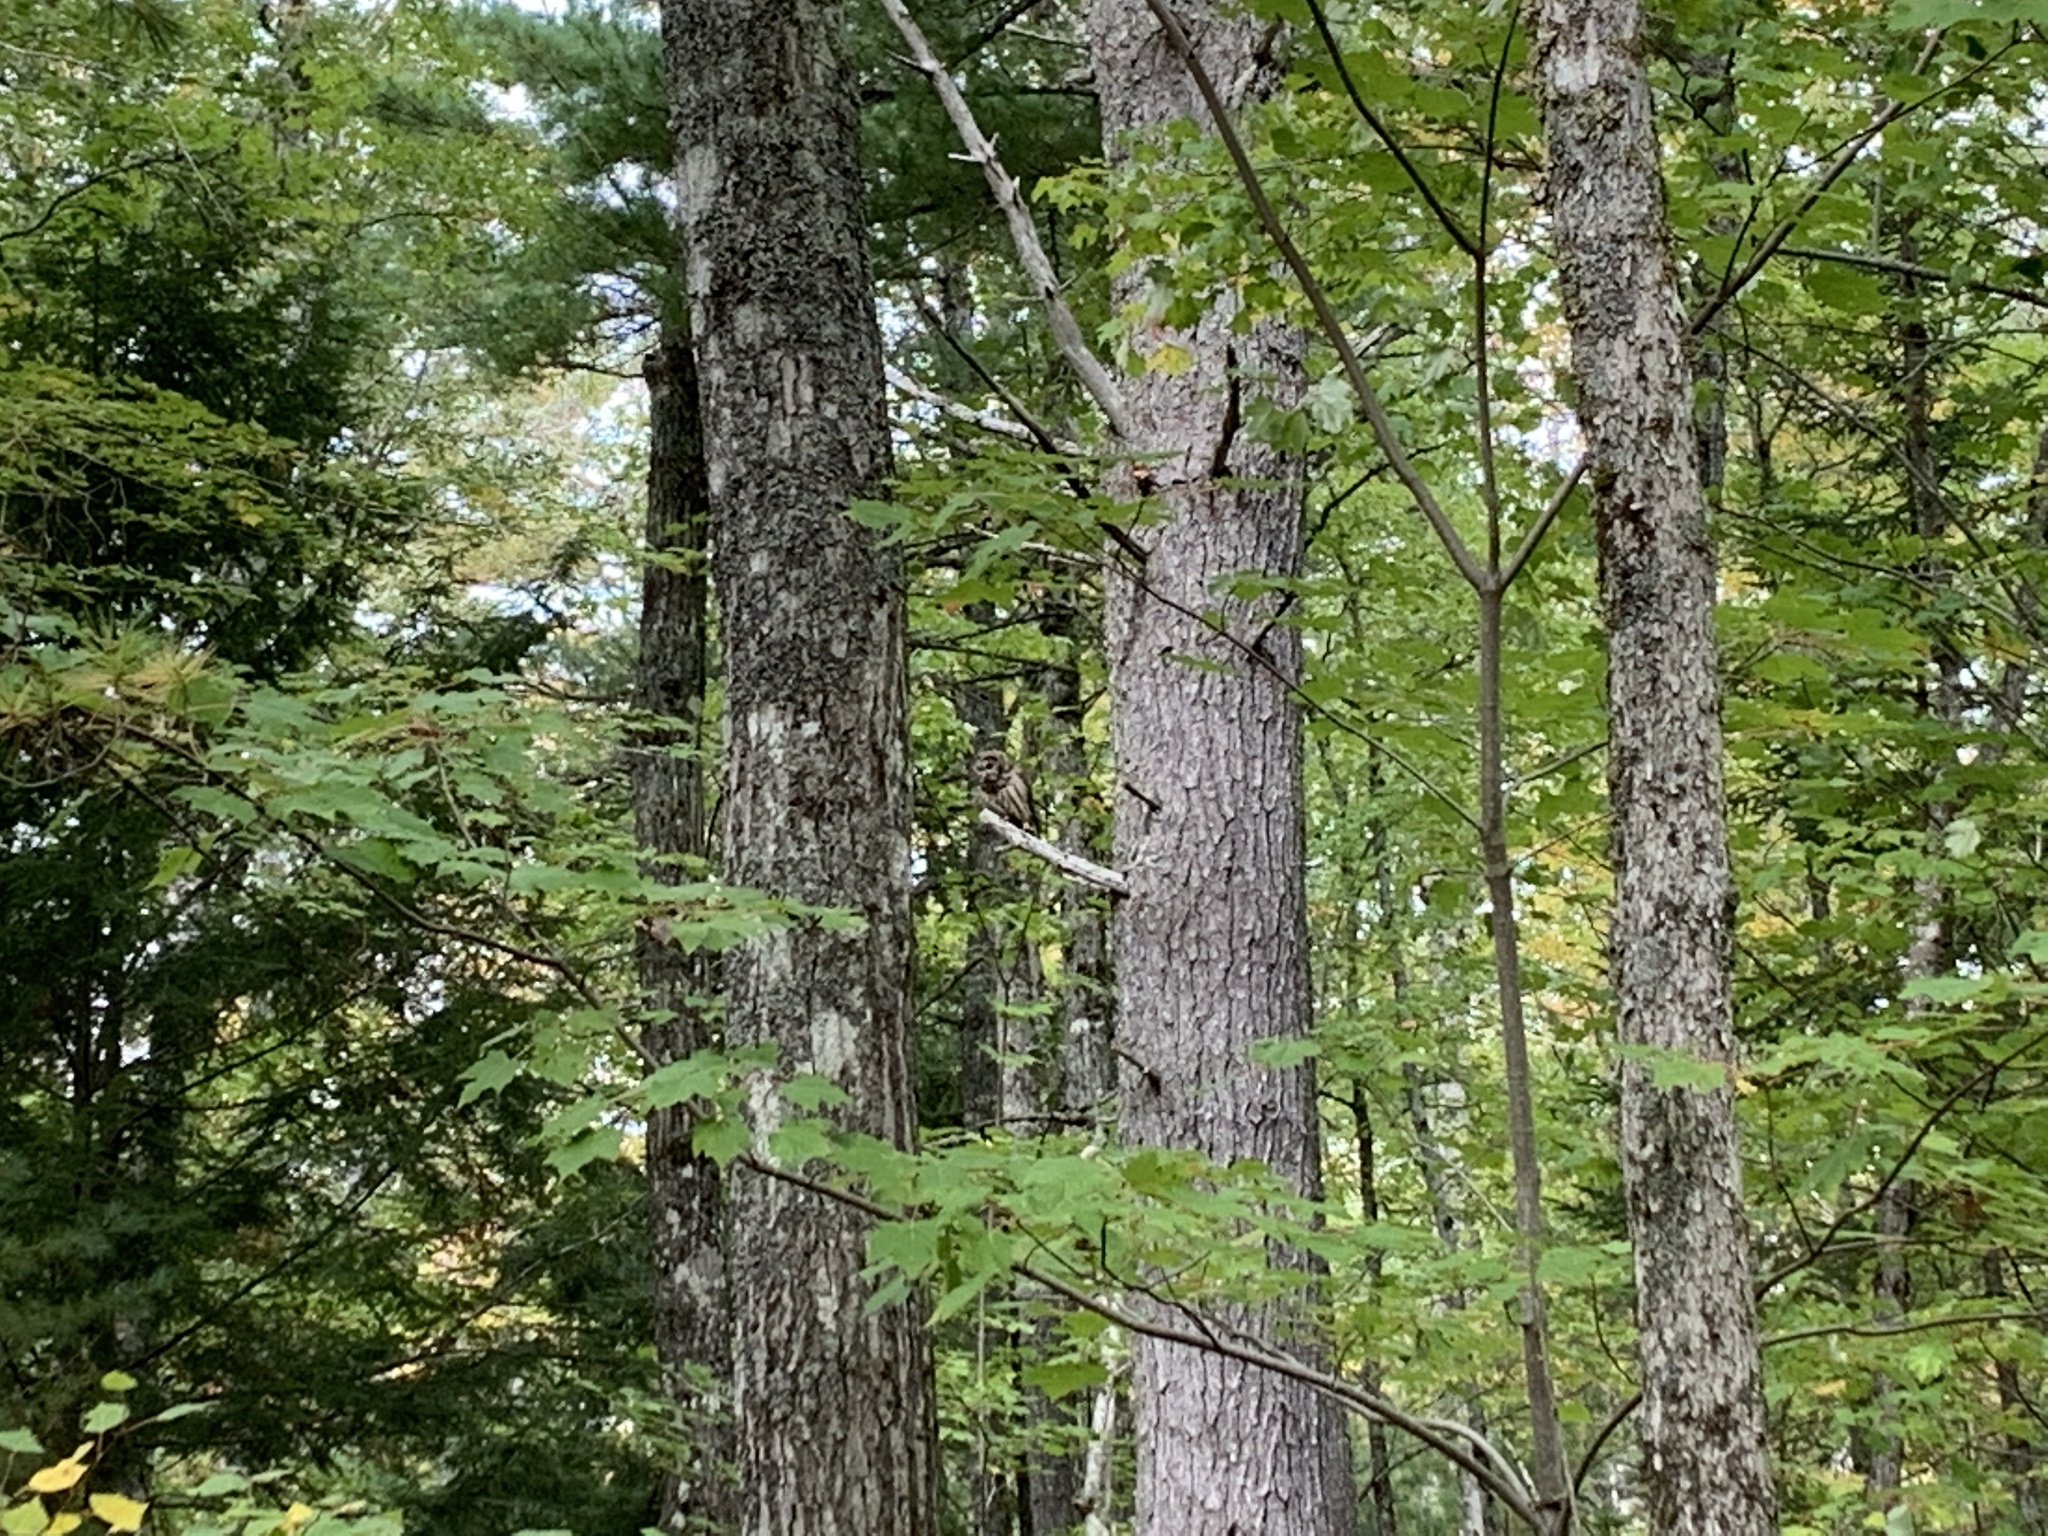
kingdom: Animalia
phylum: Chordata
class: Aves
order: Strigiformes
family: Strigidae
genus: Strix
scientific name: Strix varia
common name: Barred owl
